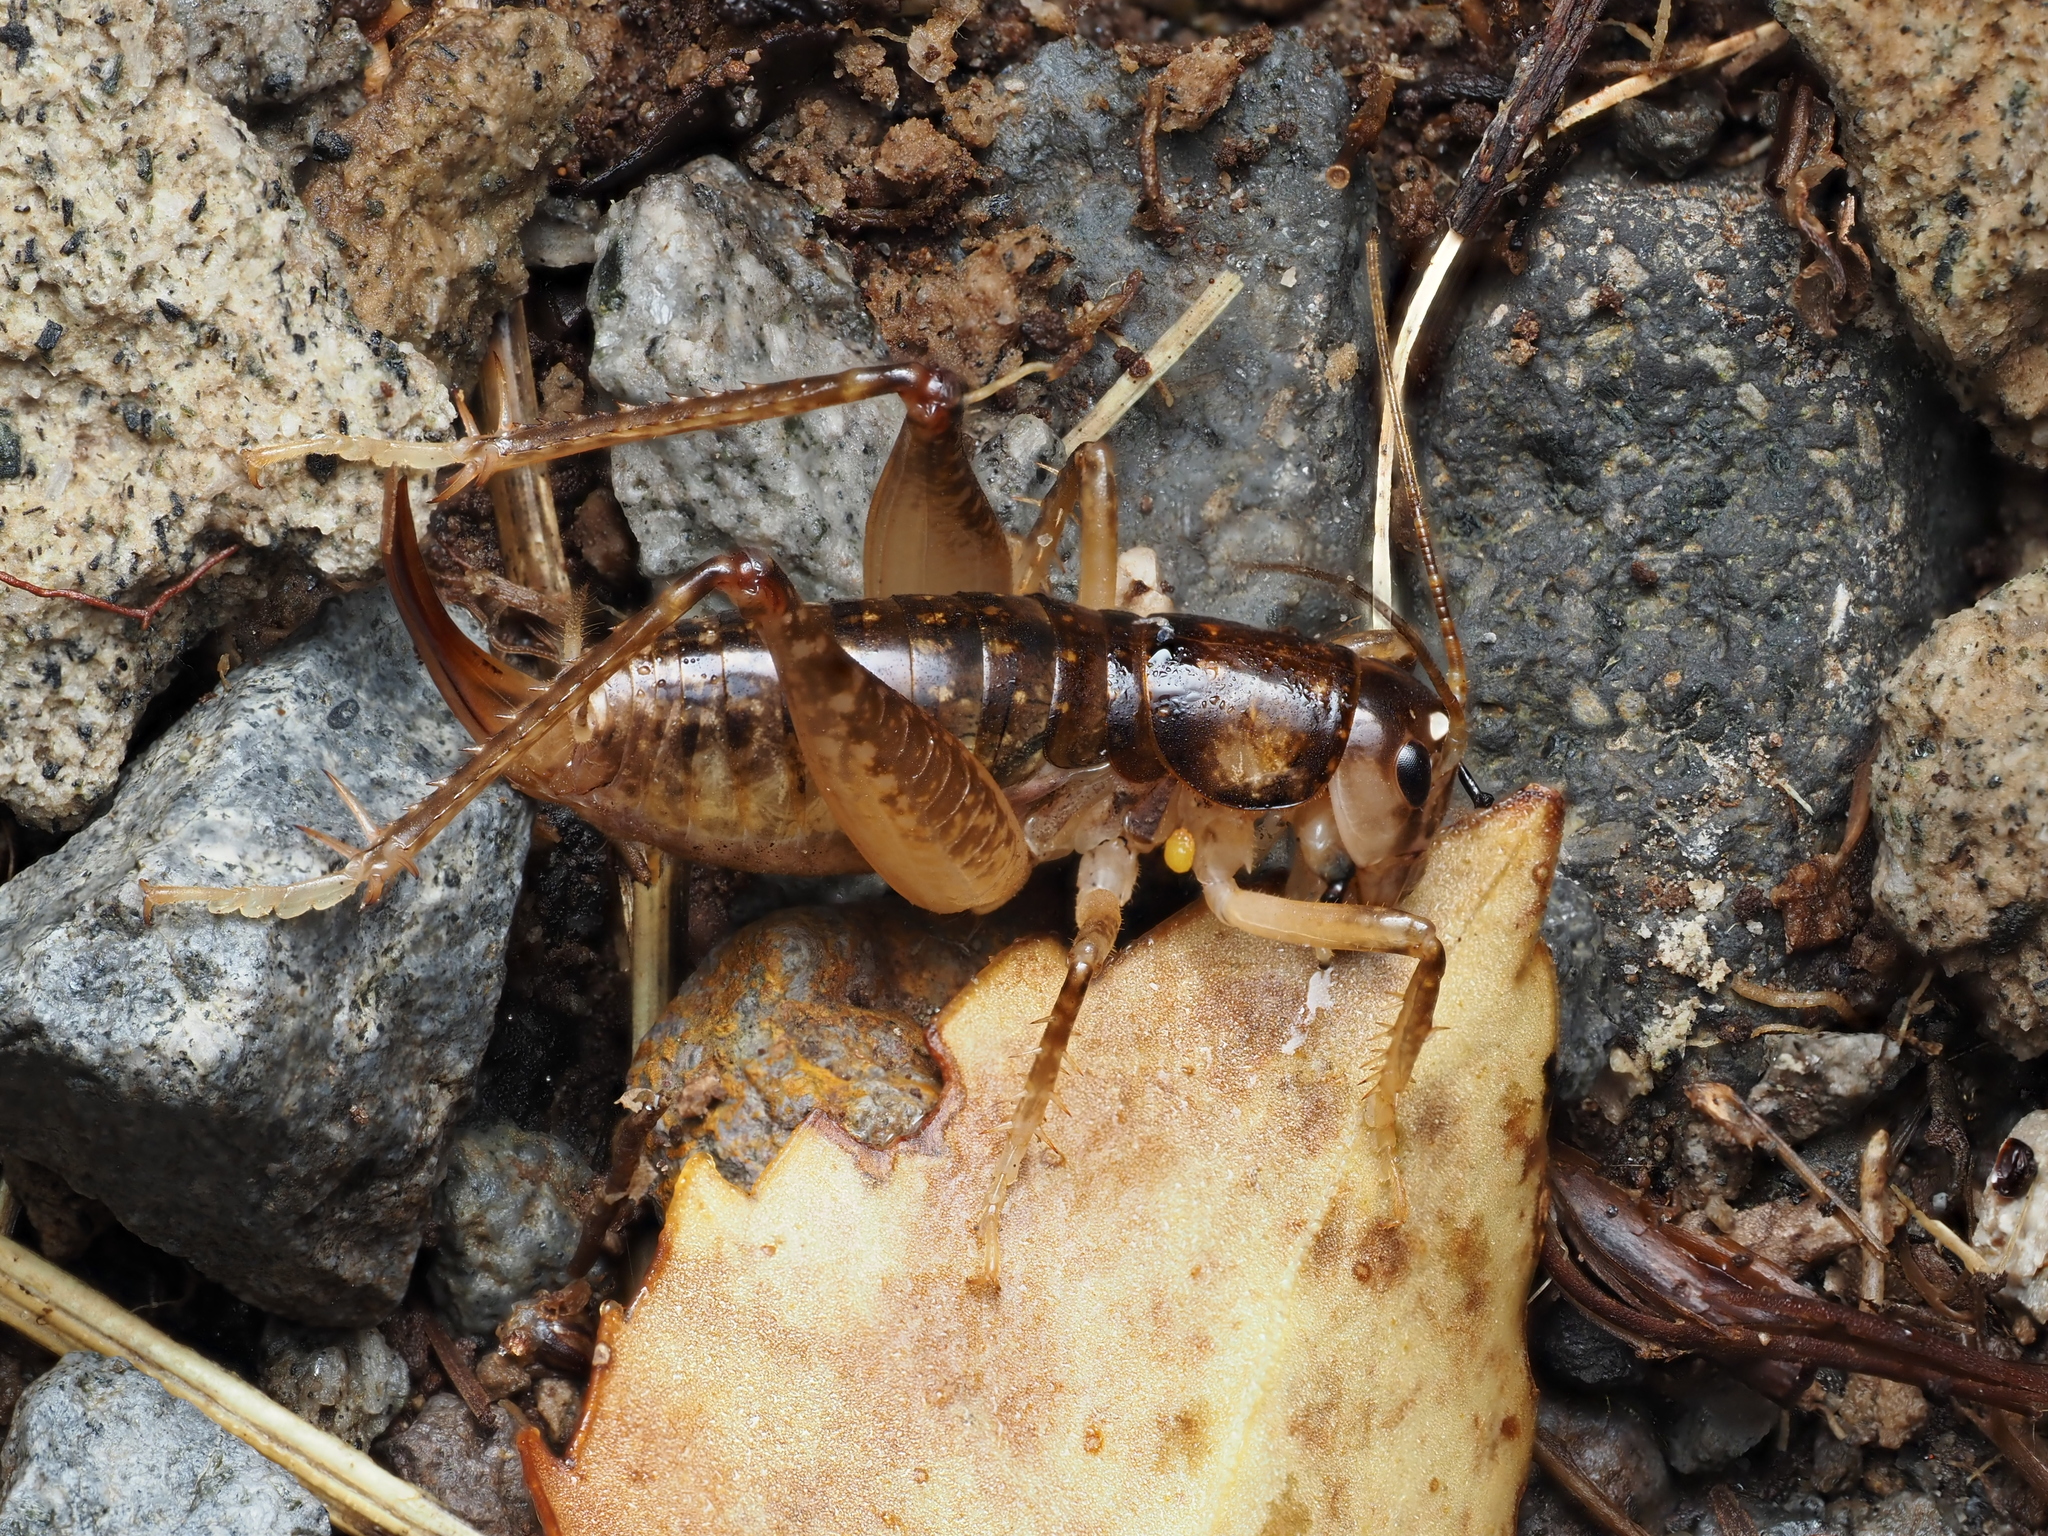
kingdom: Animalia
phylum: Arthropoda
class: Insecta
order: Orthoptera
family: Anostostomatidae
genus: Hemiandrus
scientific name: Hemiandrus luna
